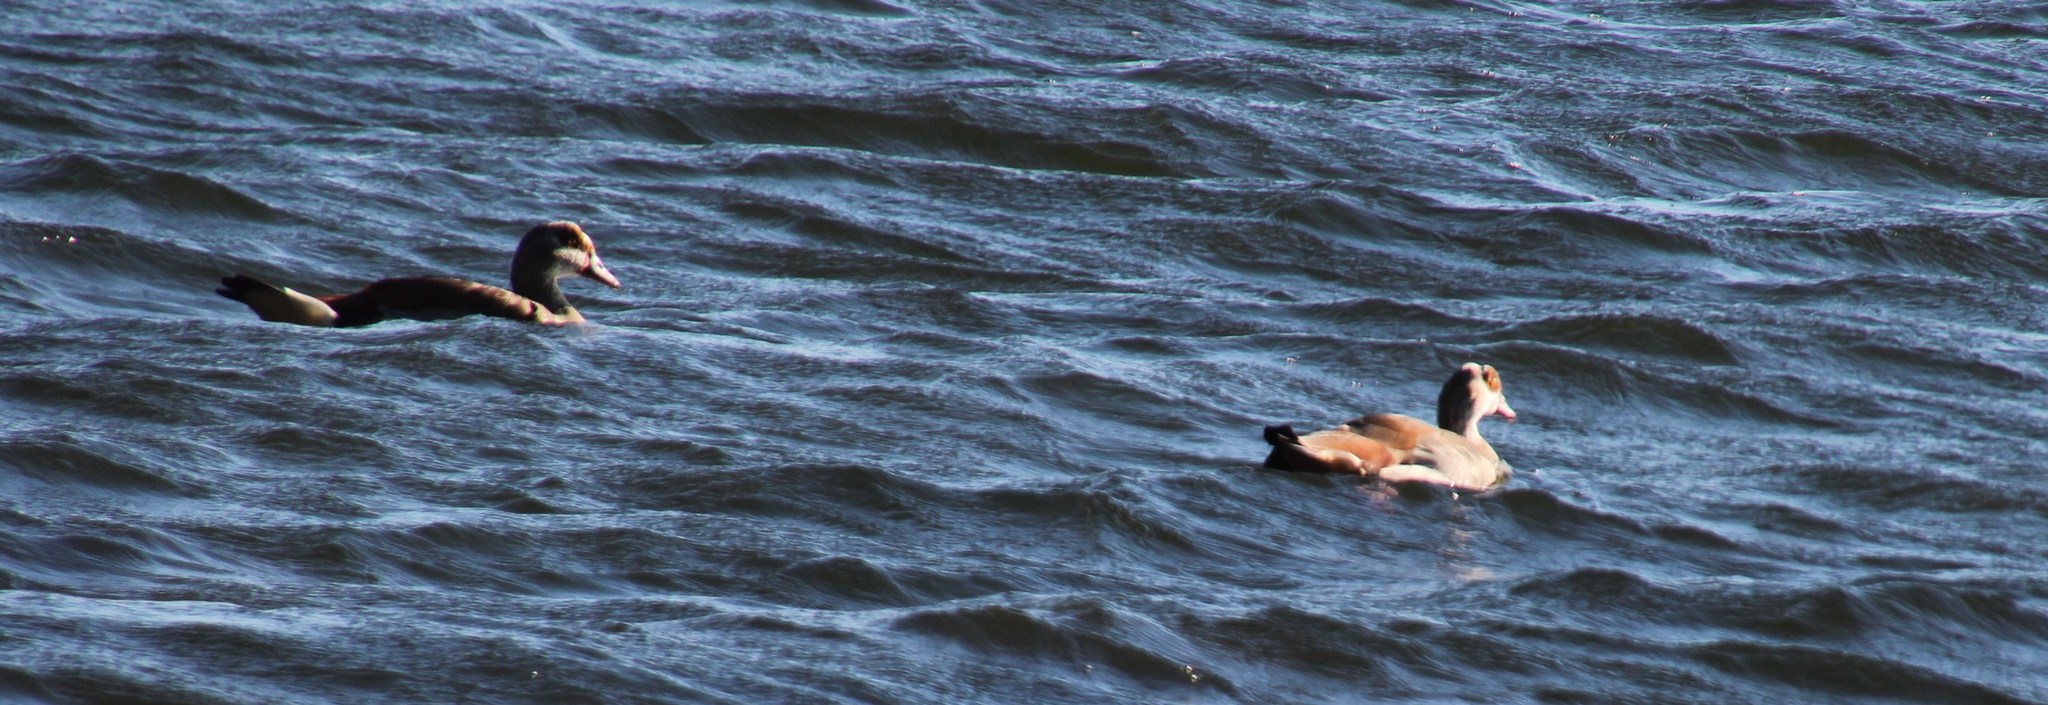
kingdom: Animalia
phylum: Chordata
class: Aves
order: Anseriformes
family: Anatidae
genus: Alopochen
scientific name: Alopochen aegyptiaca
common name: Egyptian goose
